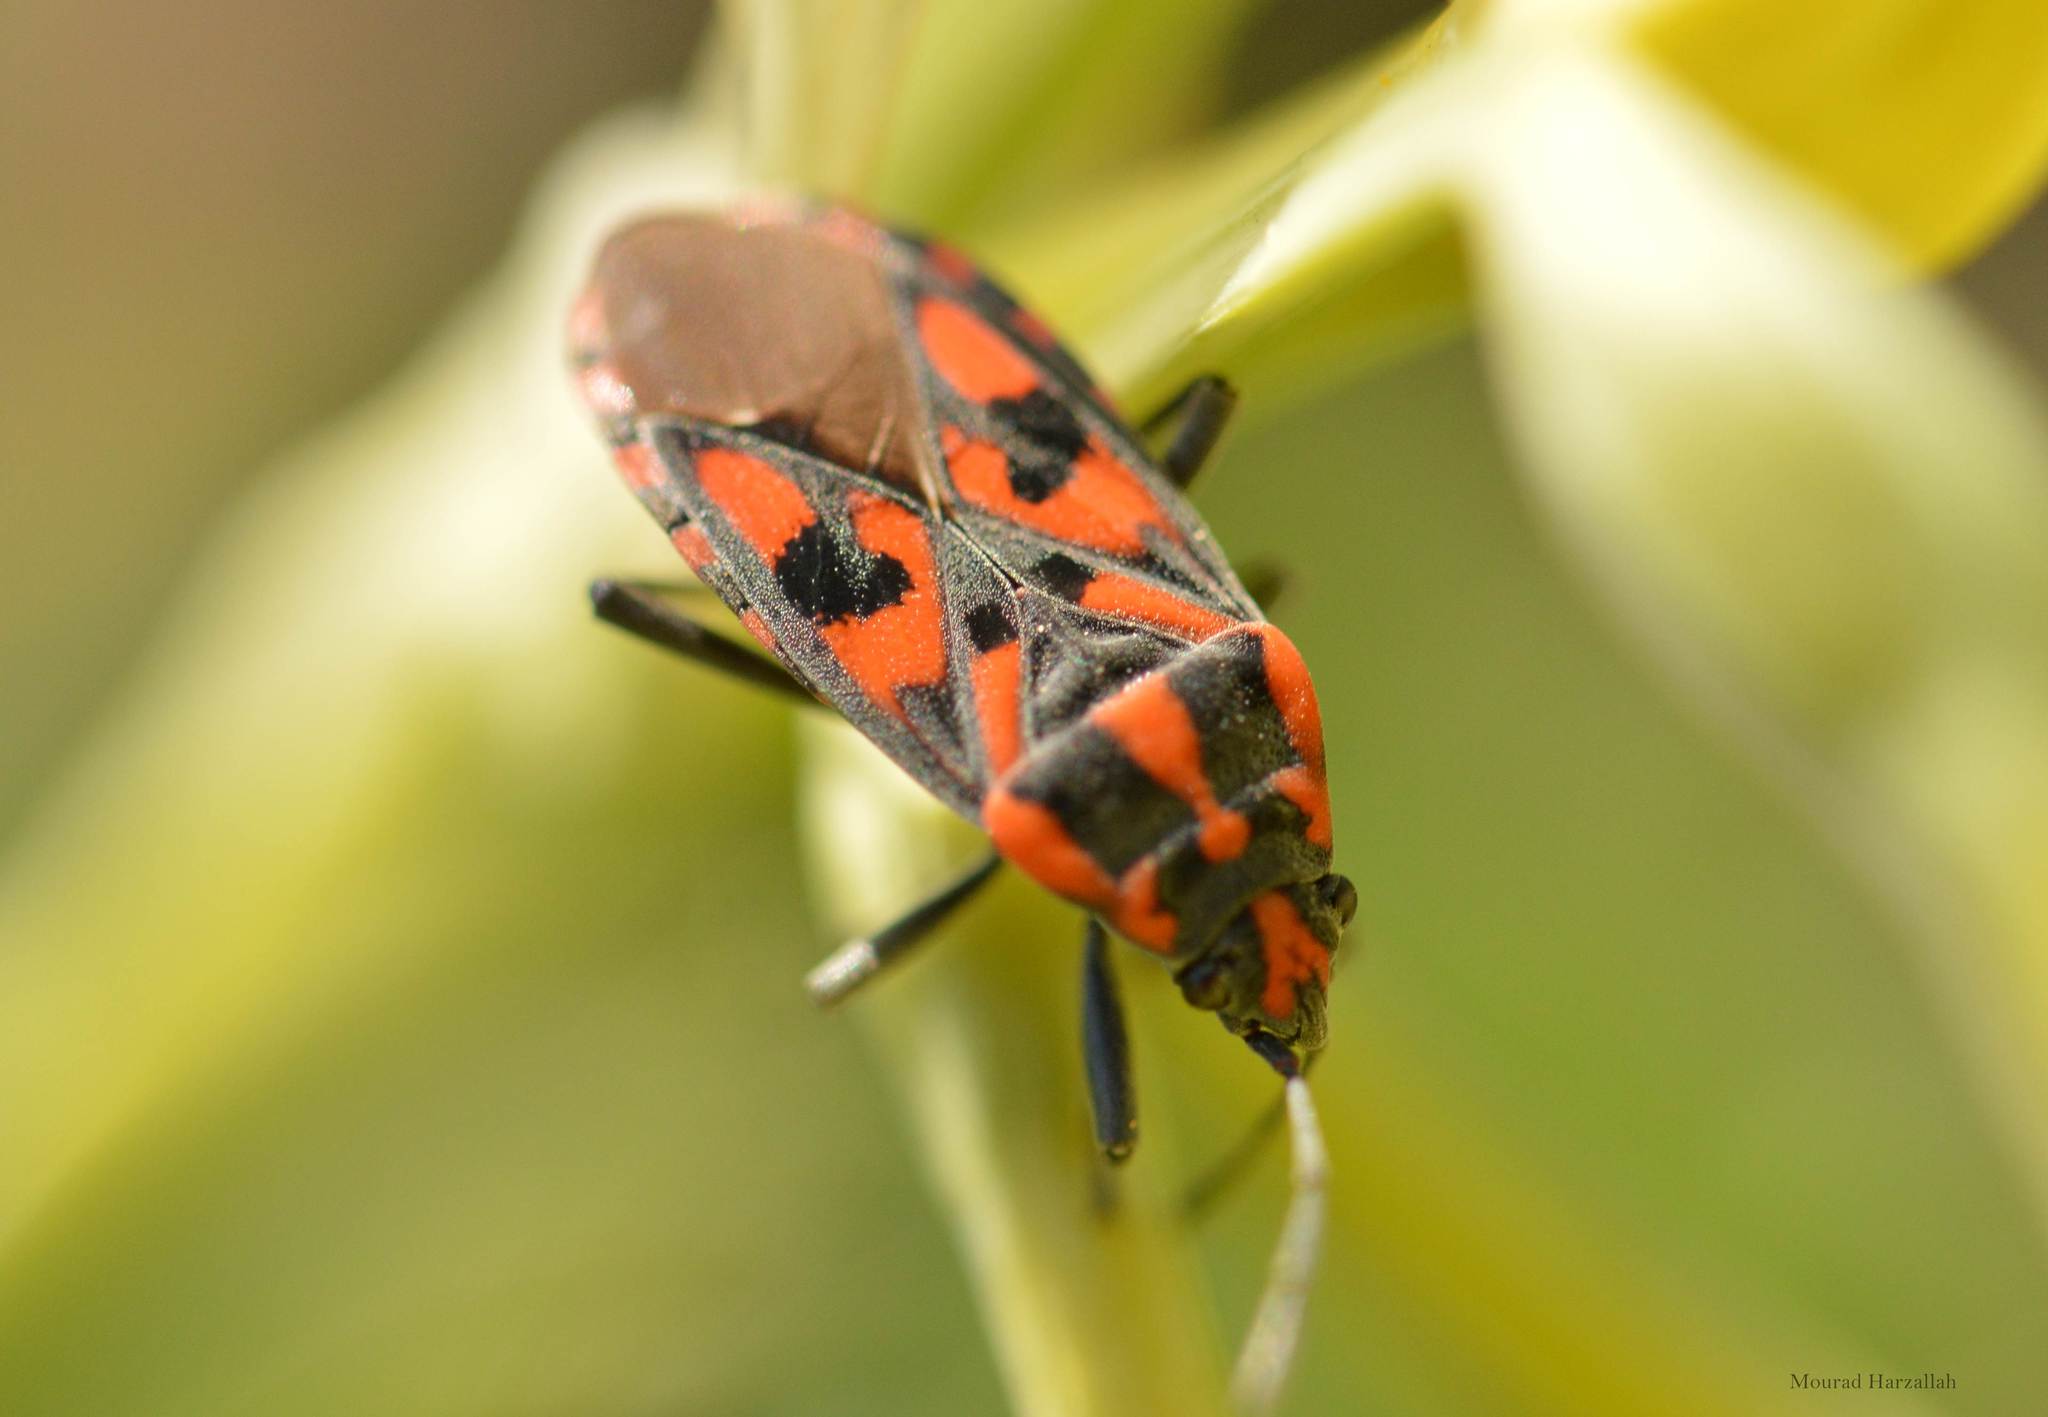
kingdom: Animalia
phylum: Arthropoda
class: Insecta
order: Hemiptera
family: Lygaeidae
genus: Spilostethus
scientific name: Spilostethus saxatilis
